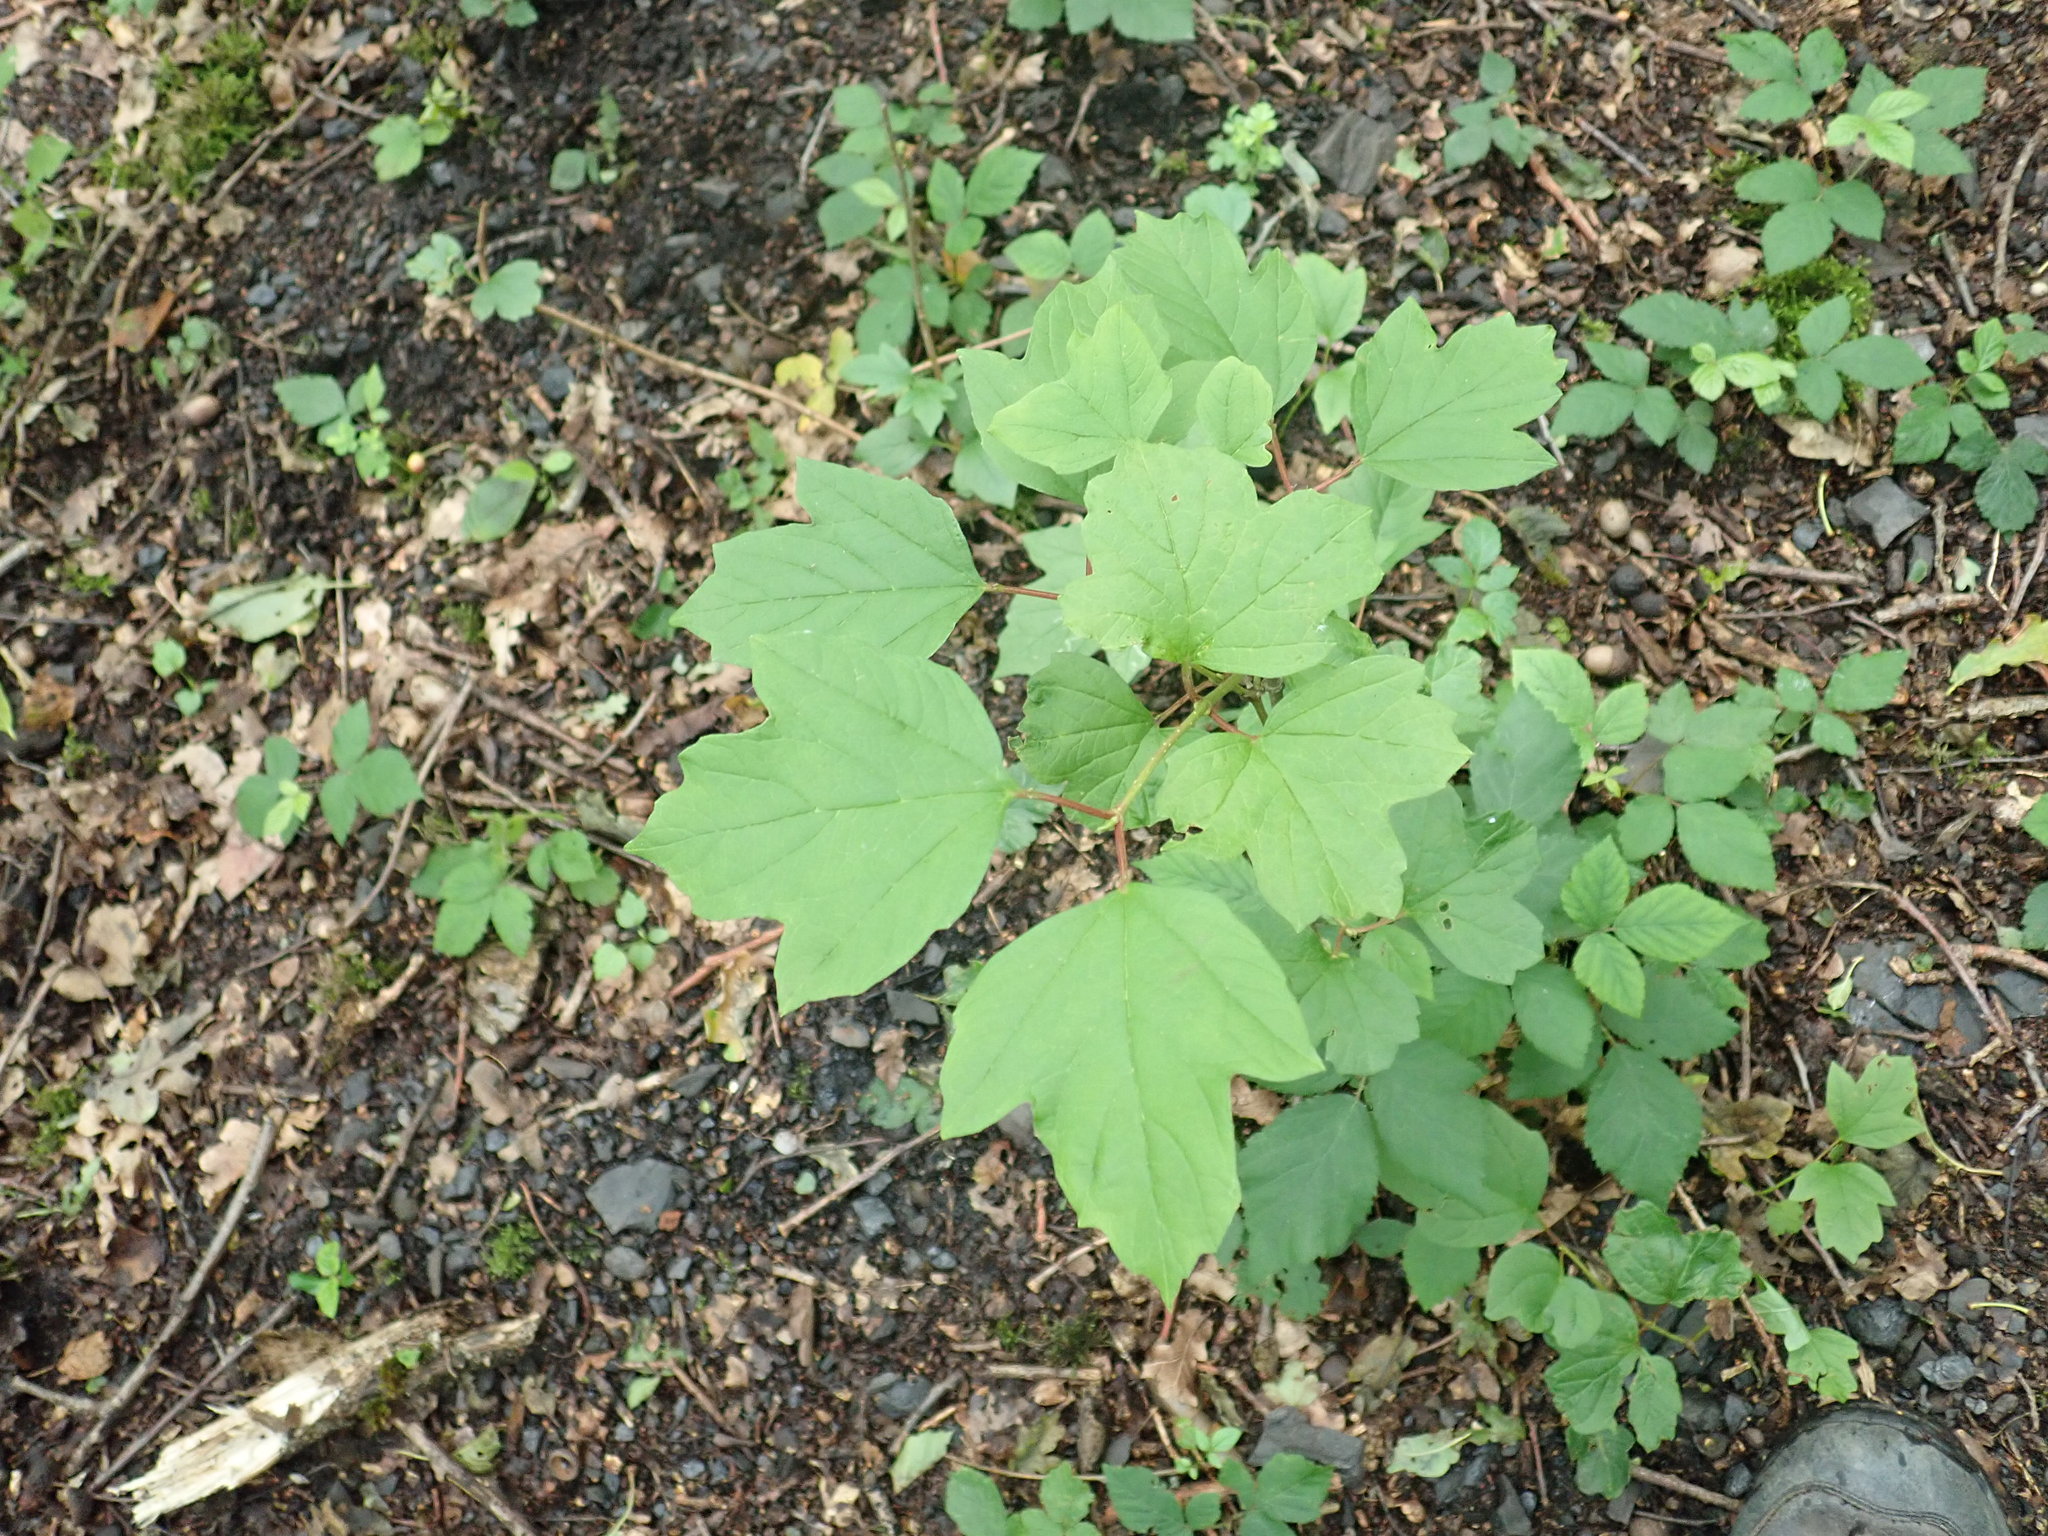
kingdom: Plantae
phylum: Tracheophyta
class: Magnoliopsida
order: Dipsacales
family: Viburnaceae
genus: Viburnum
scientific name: Viburnum opulus
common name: Guelder-rose
